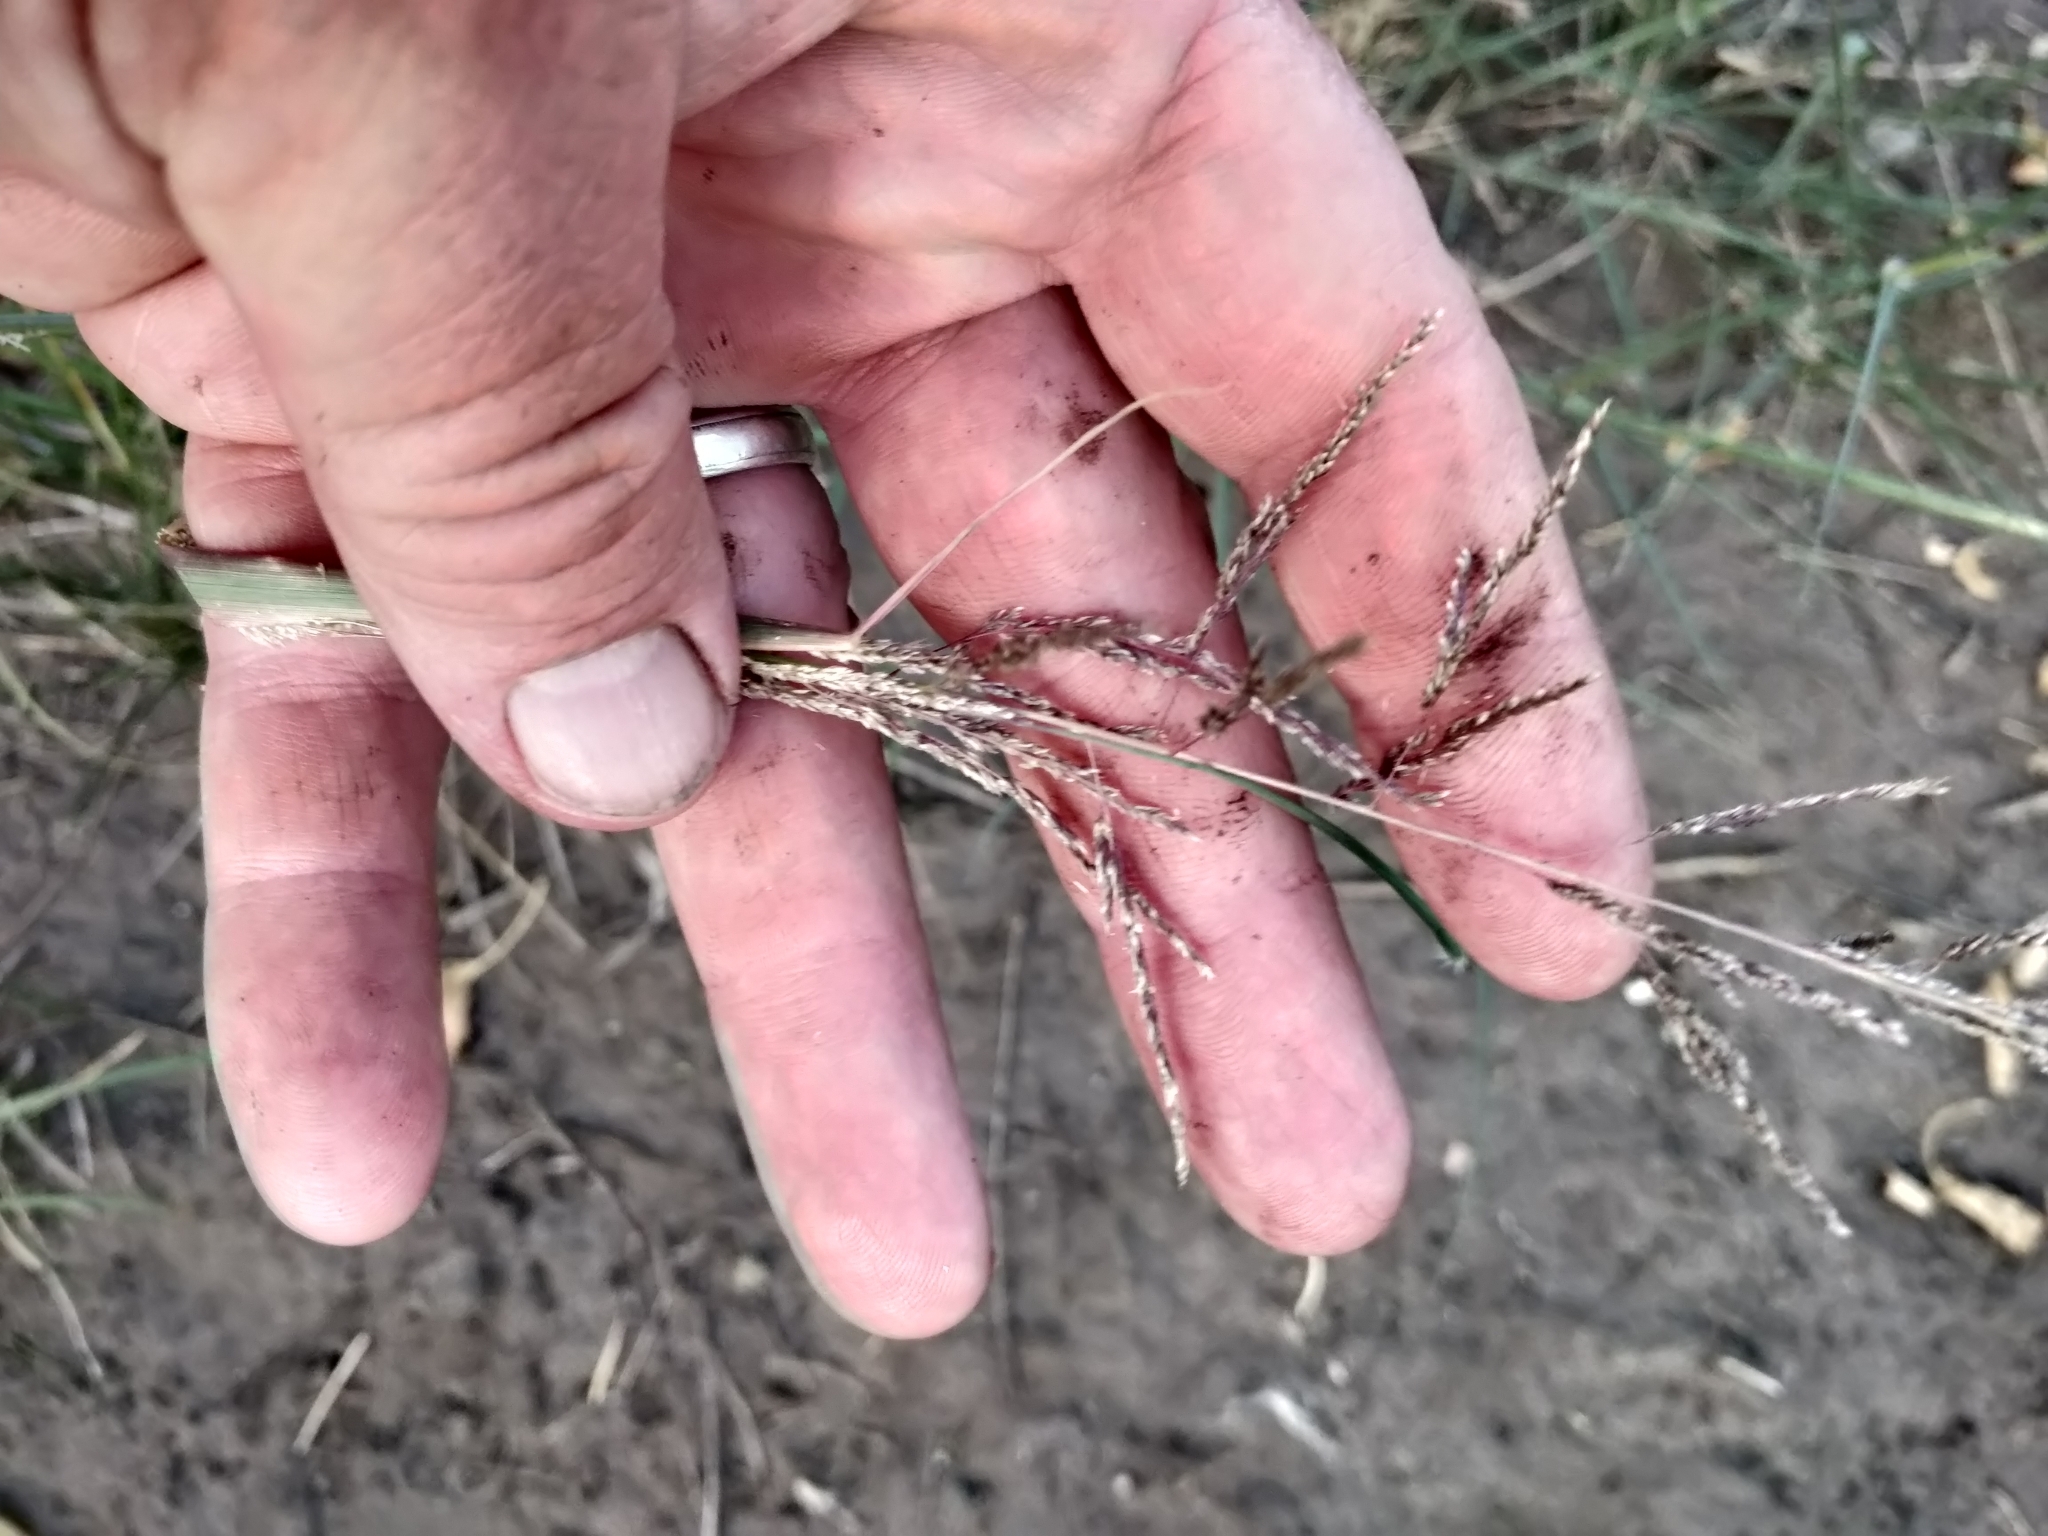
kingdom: Plantae
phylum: Tracheophyta
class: Liliopsida
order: Poales
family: Poaceae
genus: Sporobolus
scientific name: Sporobolus cryptandrus
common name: Sand dropseed
